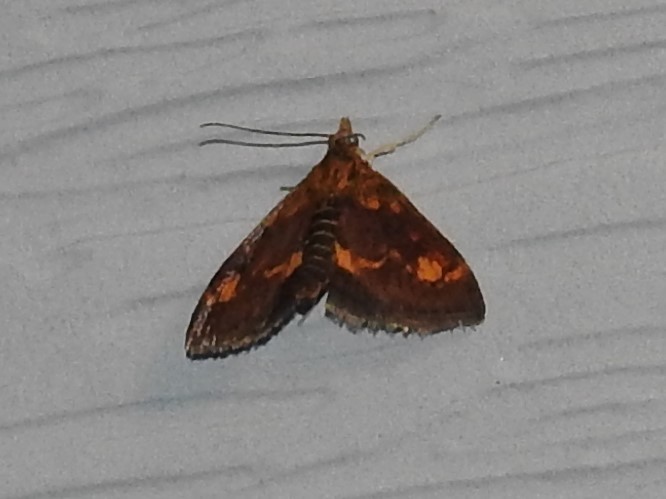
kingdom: Animalia
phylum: Arthropoda
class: Insecta
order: Lepidoptera
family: Crambidae
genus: Pyrausta
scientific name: Pyrausta orphisalis
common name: Orange mint moth
